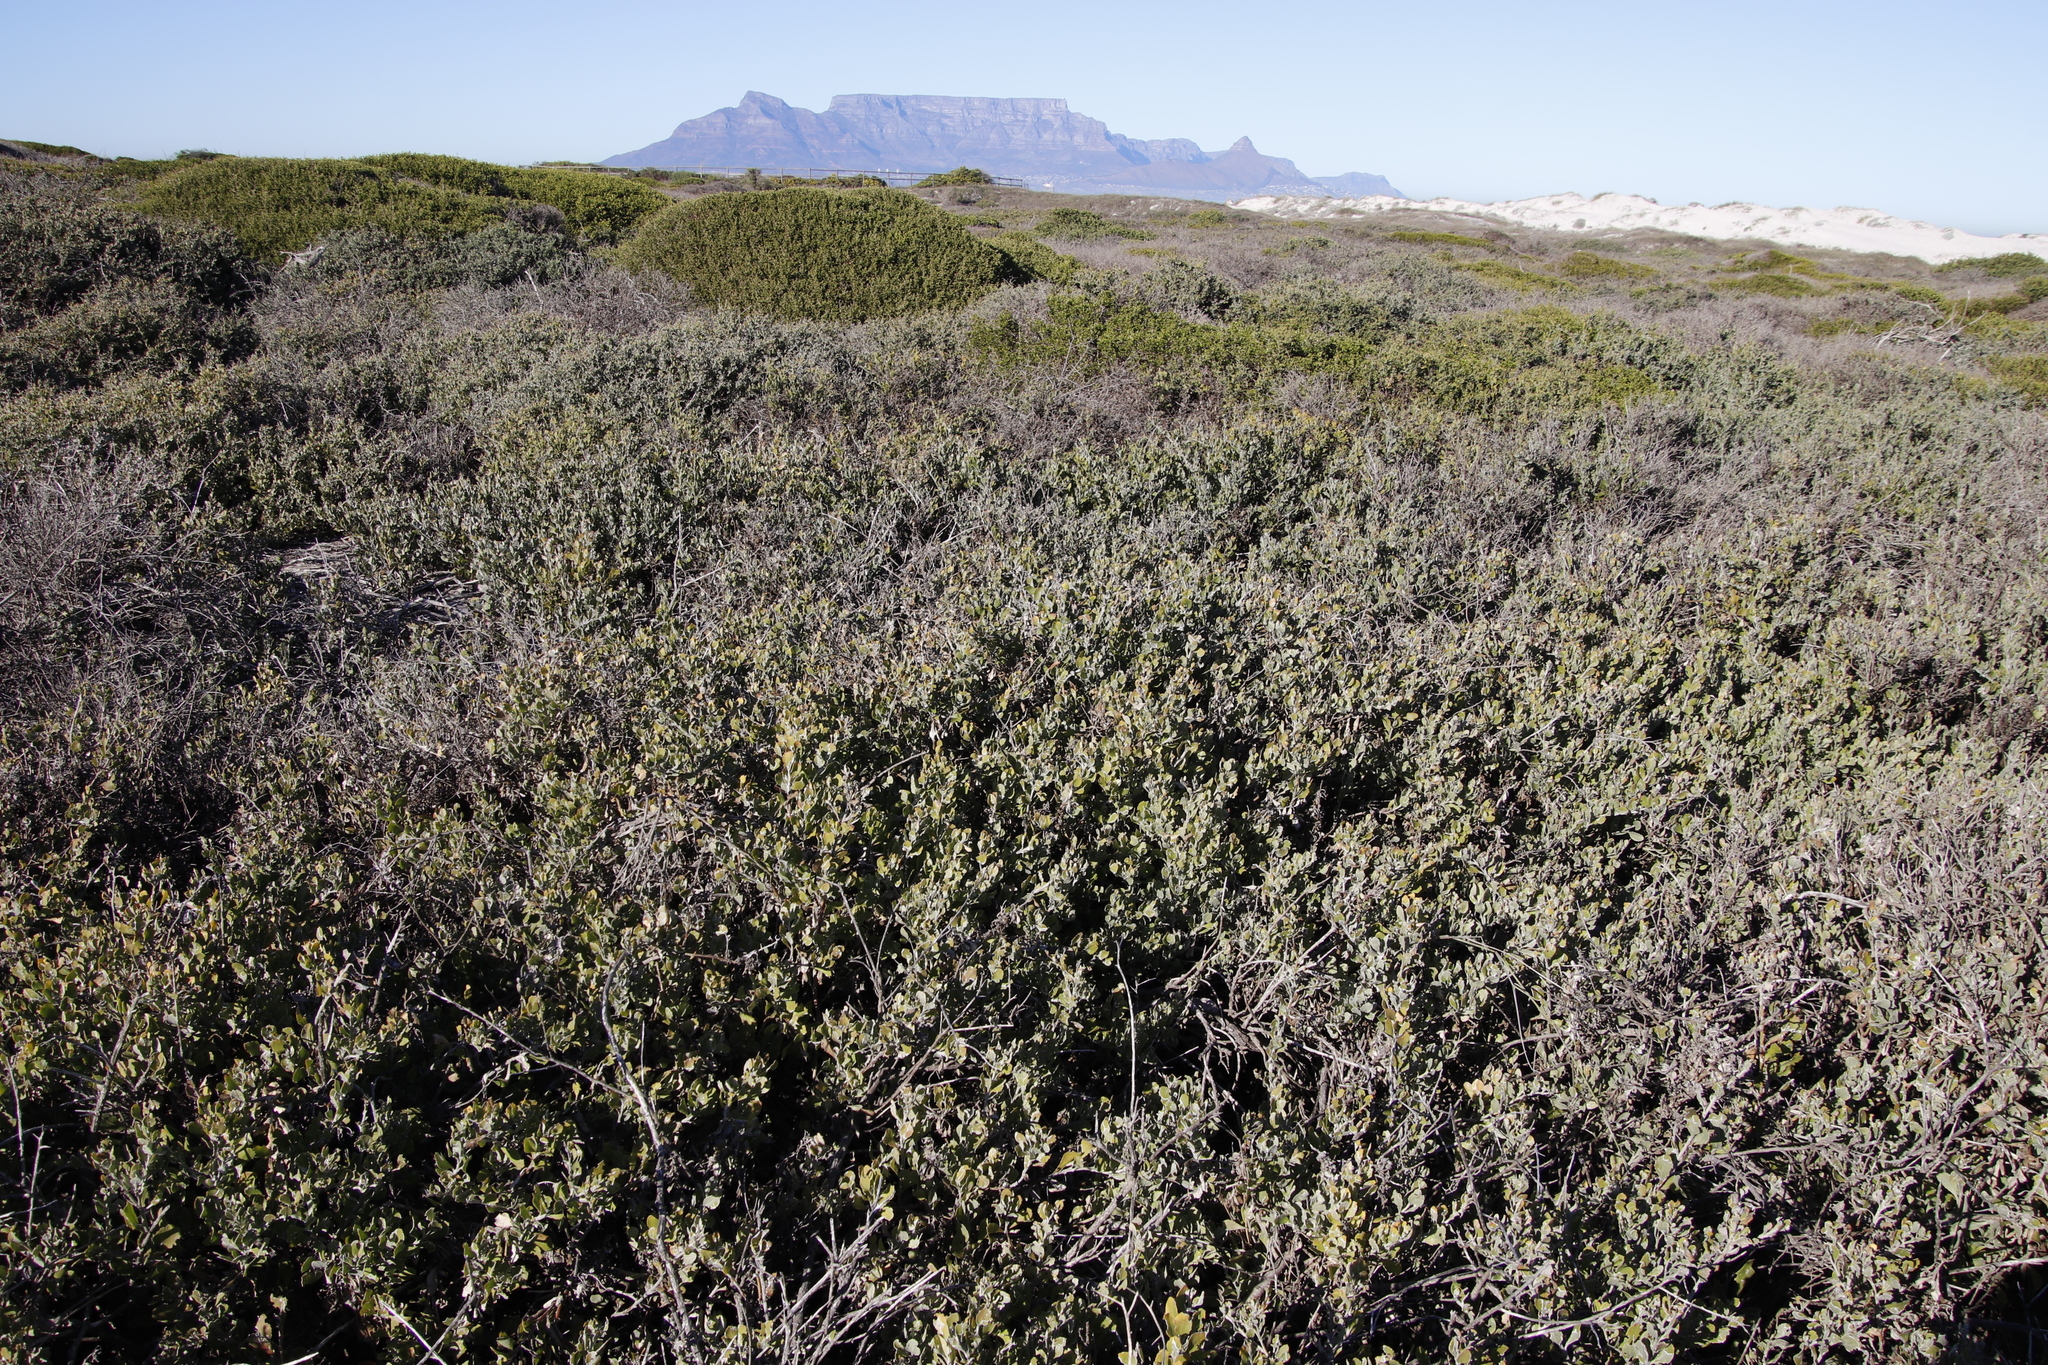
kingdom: Plantae
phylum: Tracheophyta
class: Magnoliopsida
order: Asterales
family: Asteraceae
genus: Osteospermum
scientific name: Osteospermum incanum
